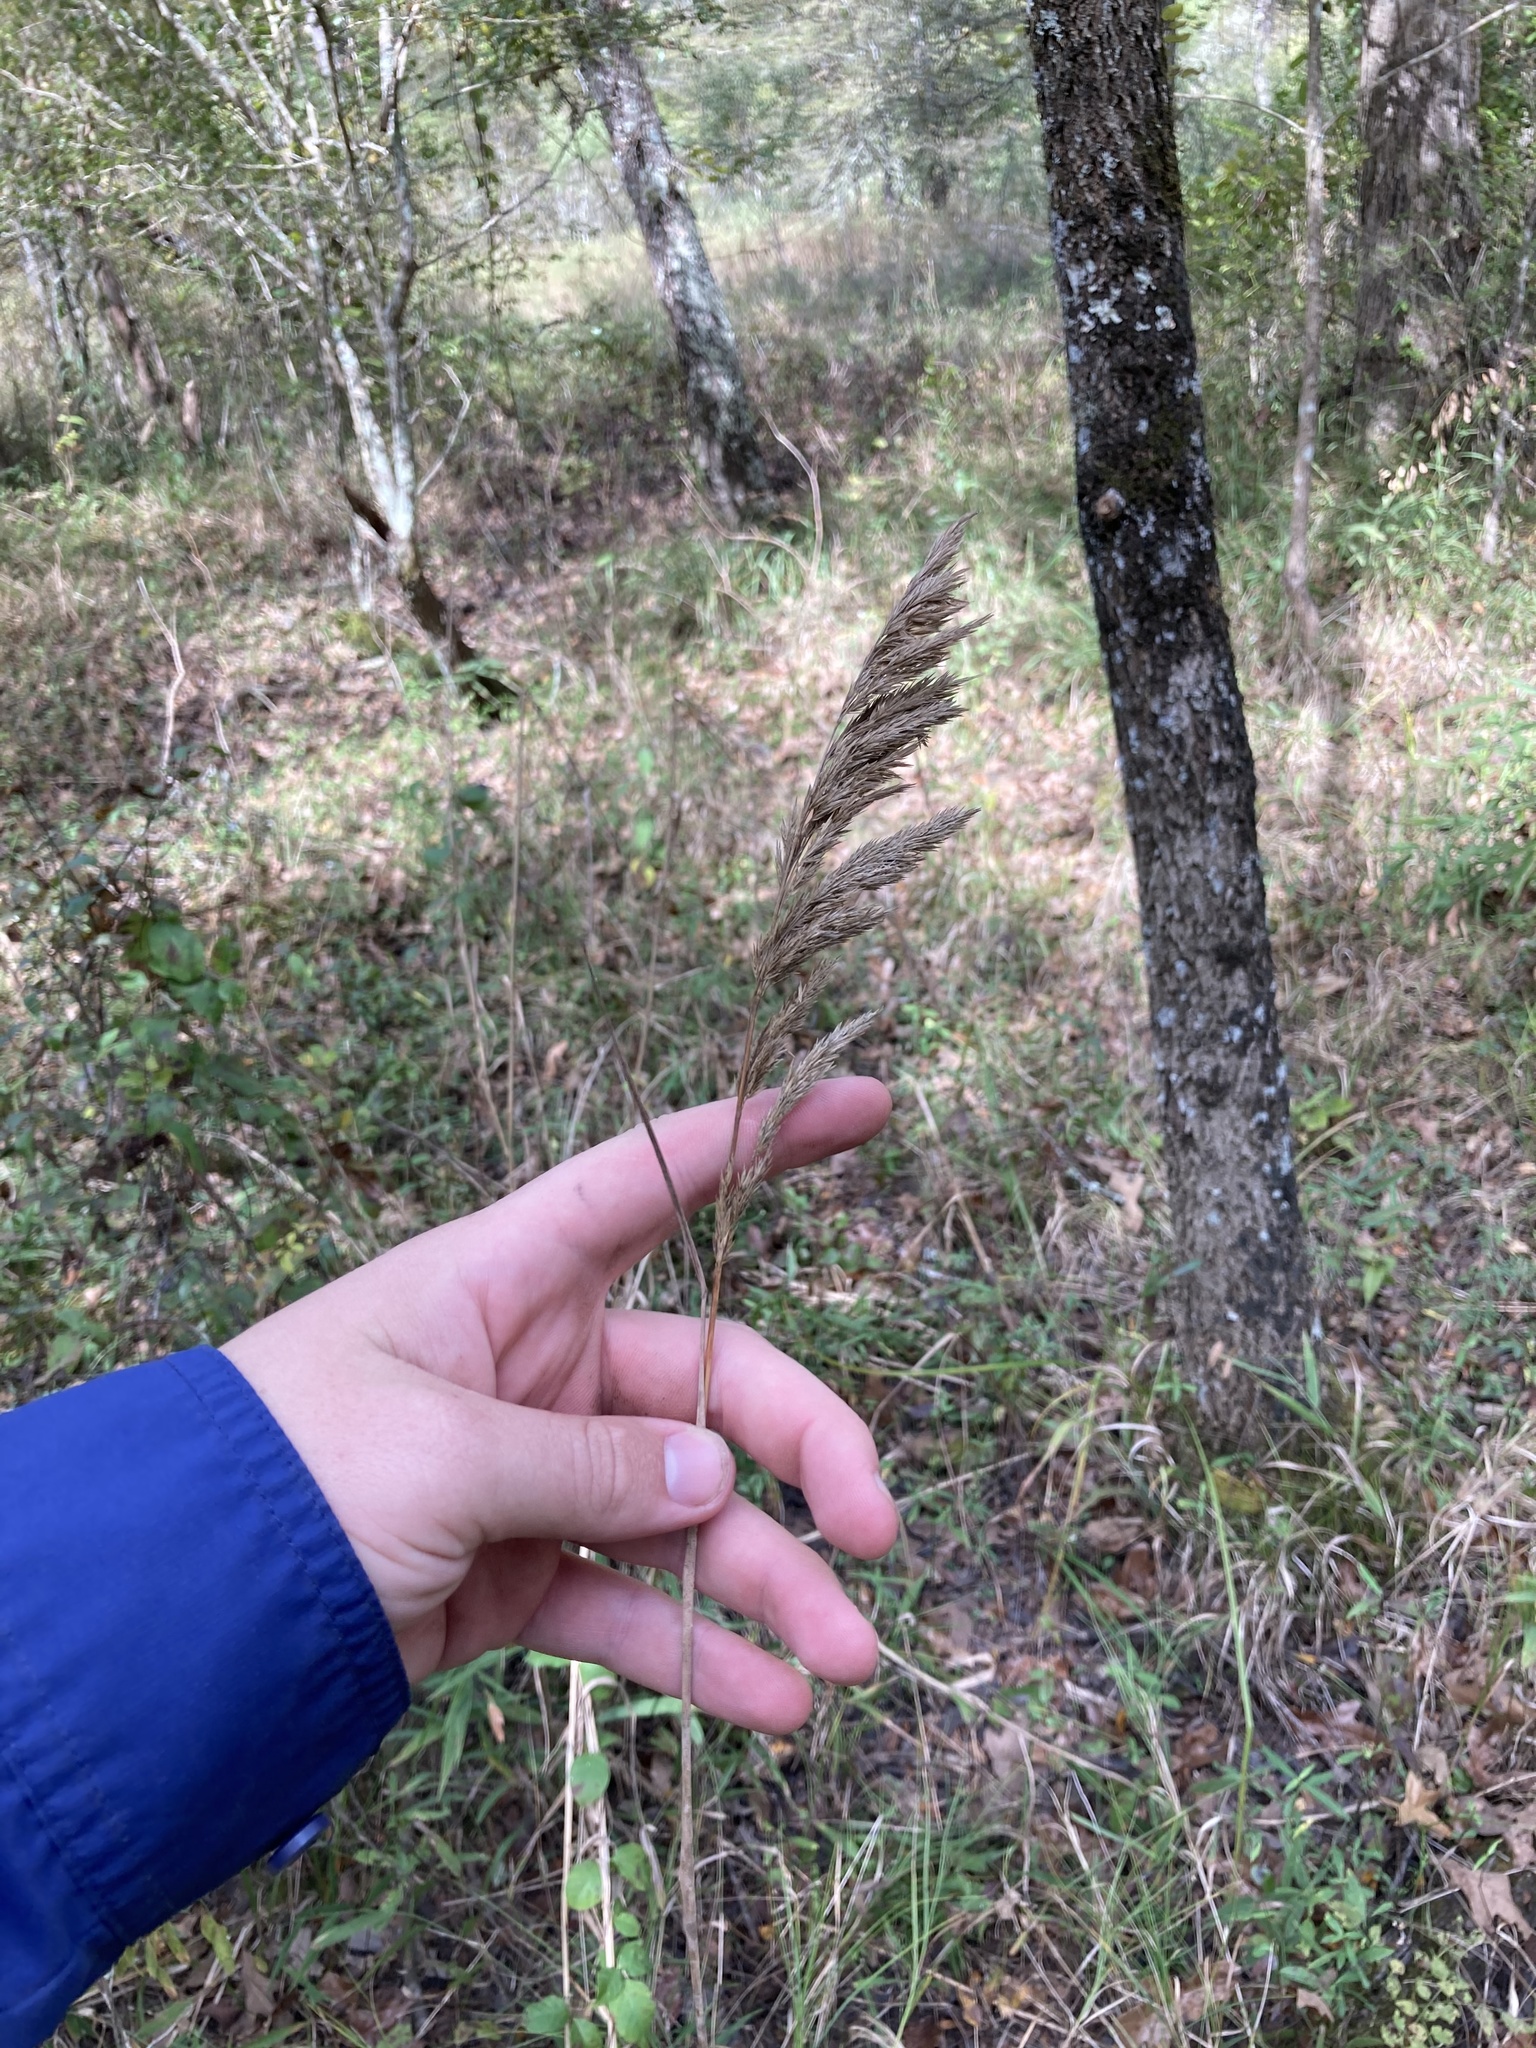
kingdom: Plantae
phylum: Tracheophyta
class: Liliopsida
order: Poales
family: Poaceae
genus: Cinna
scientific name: Cinna arundinacea
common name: Stout woodreed
